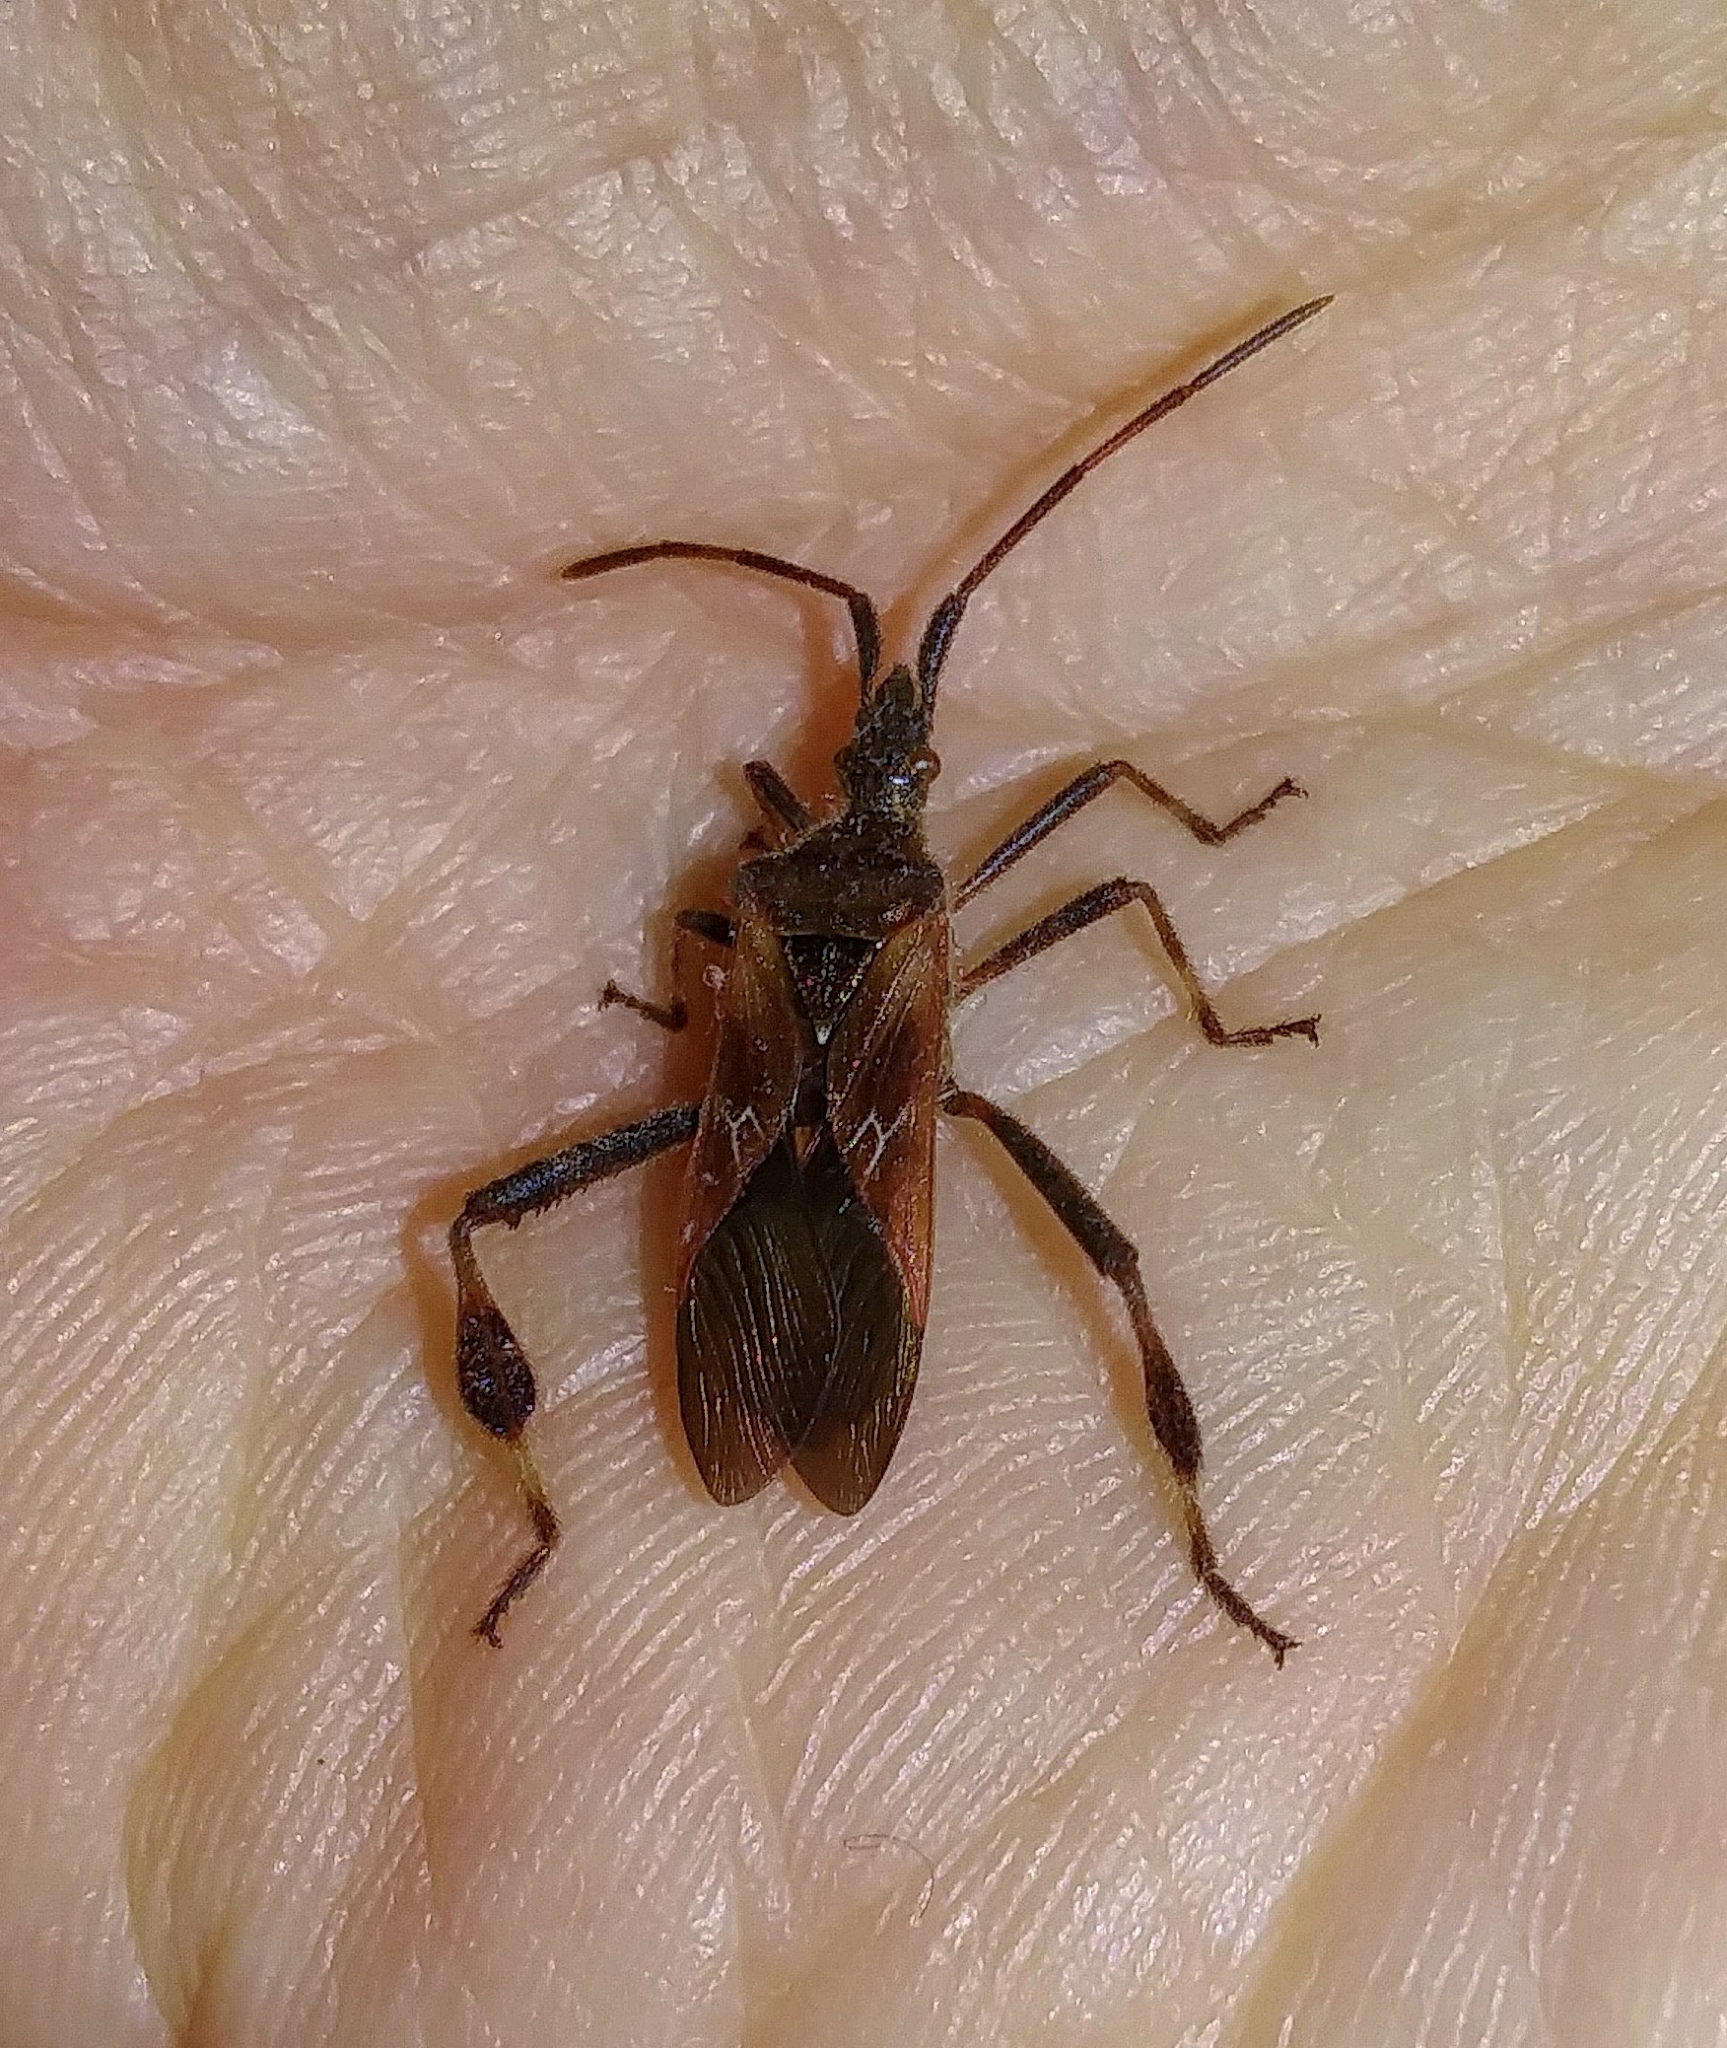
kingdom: Animalia
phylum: Arthropoda
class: Insecta
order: Hemiptera
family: Coreidae
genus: Leptoglossus
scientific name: Leptoglossus occidentalis
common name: Western conifer-seed bug
